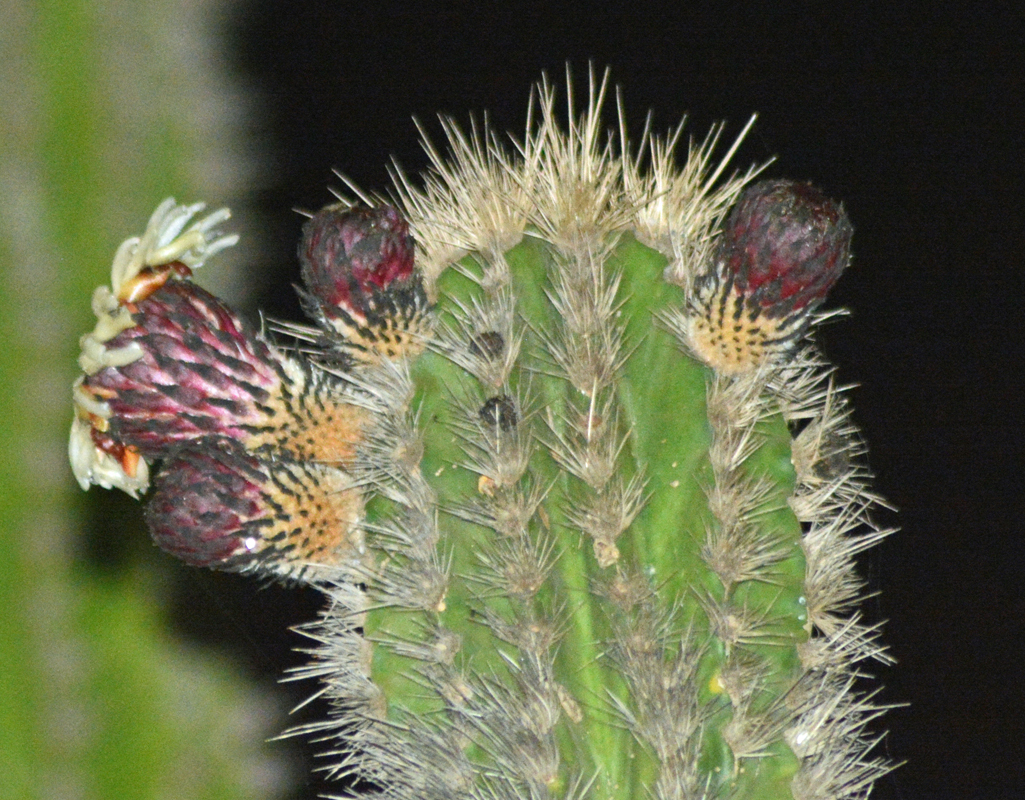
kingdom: Plantae
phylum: Tracheophyta
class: Magnoliopsida
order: Caryophyllales
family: Cactaceae
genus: Pachycereus
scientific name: Pachycereus pecten-aboriginum
